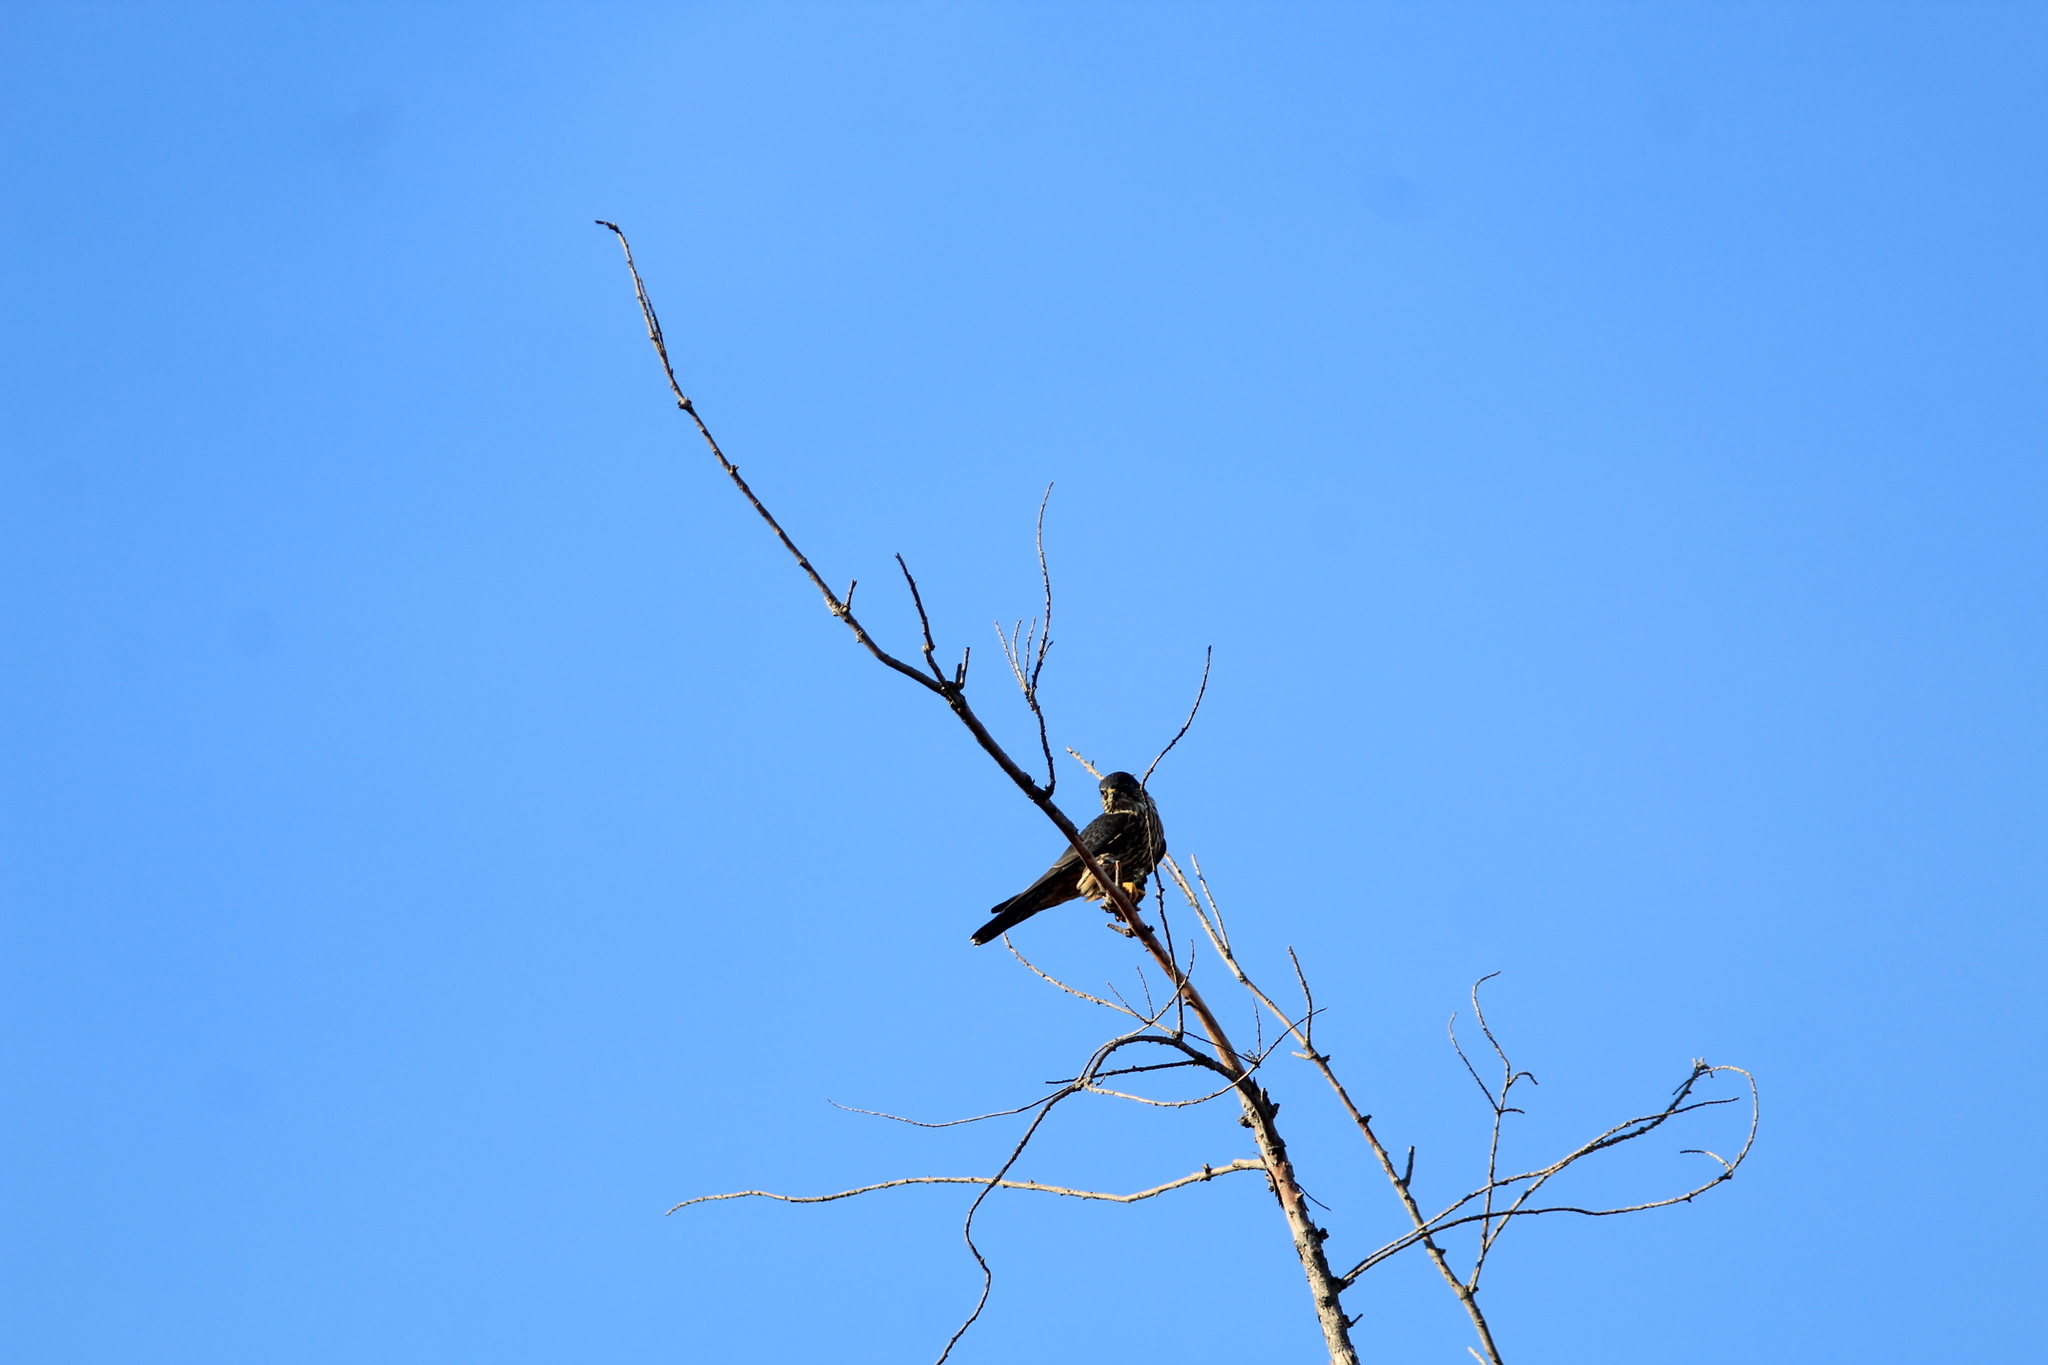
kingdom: Animalia
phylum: Chordata
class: Aves
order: Falconiformes
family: Falconidae
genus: Falco
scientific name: Falco columbarius
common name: Merlin
